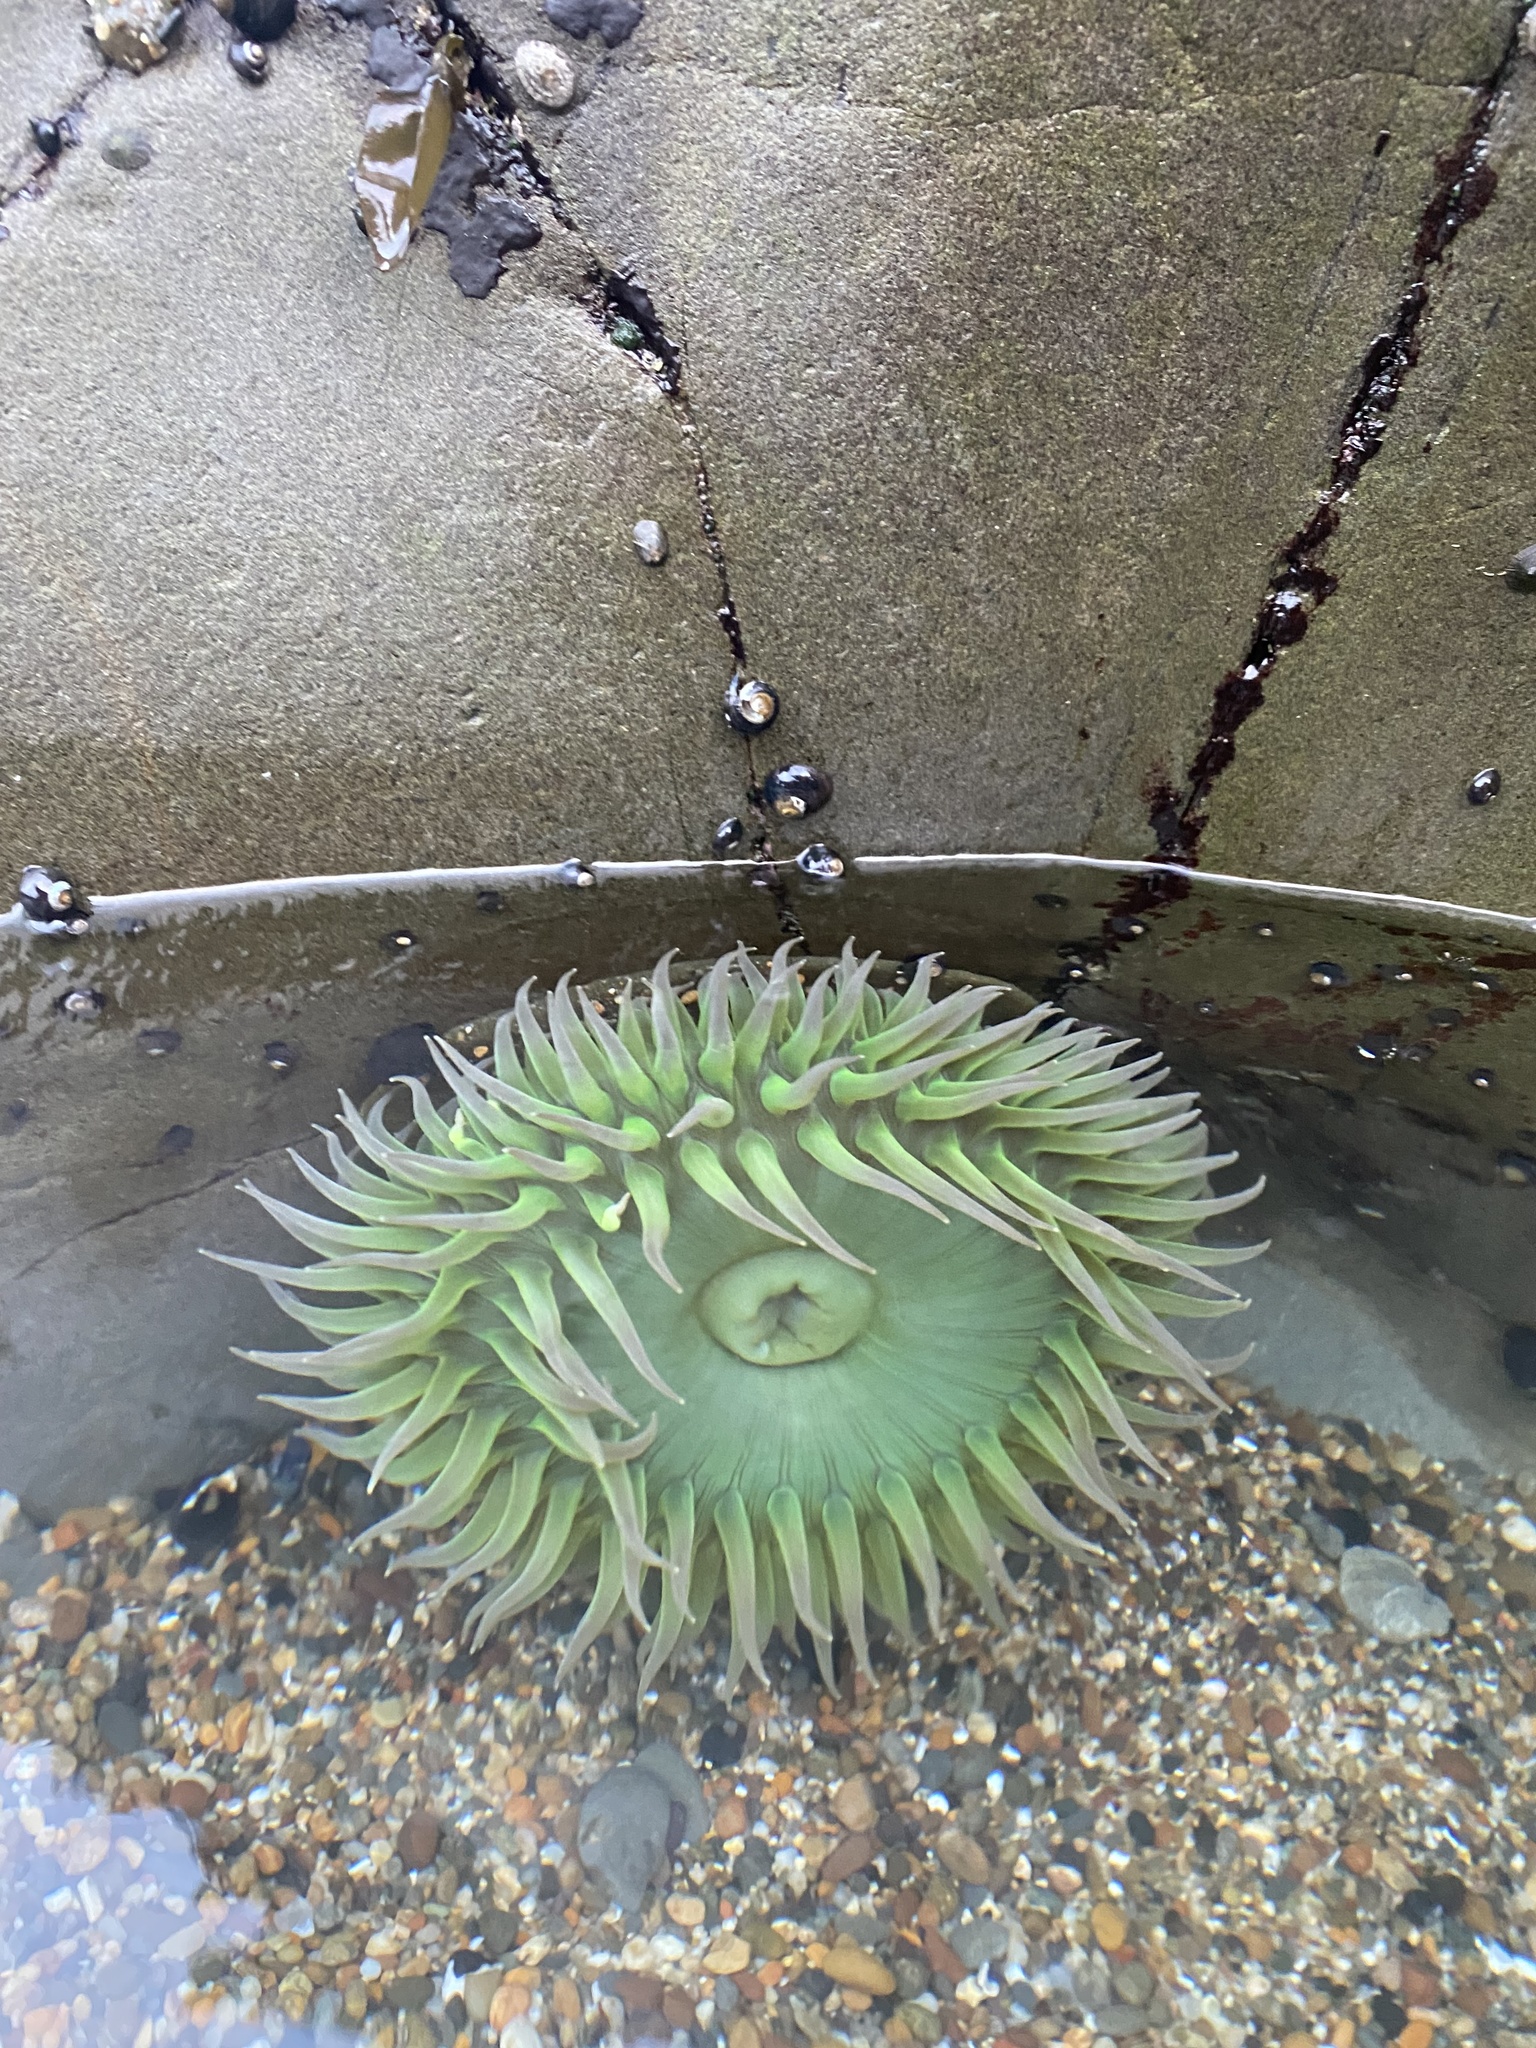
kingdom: Animalia
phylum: Cnidaria
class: Anthozoa
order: Actiniaria
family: Actiniidae
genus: Anthopleura
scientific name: Anthopleura xanthogrammica
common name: Giant green anemone
